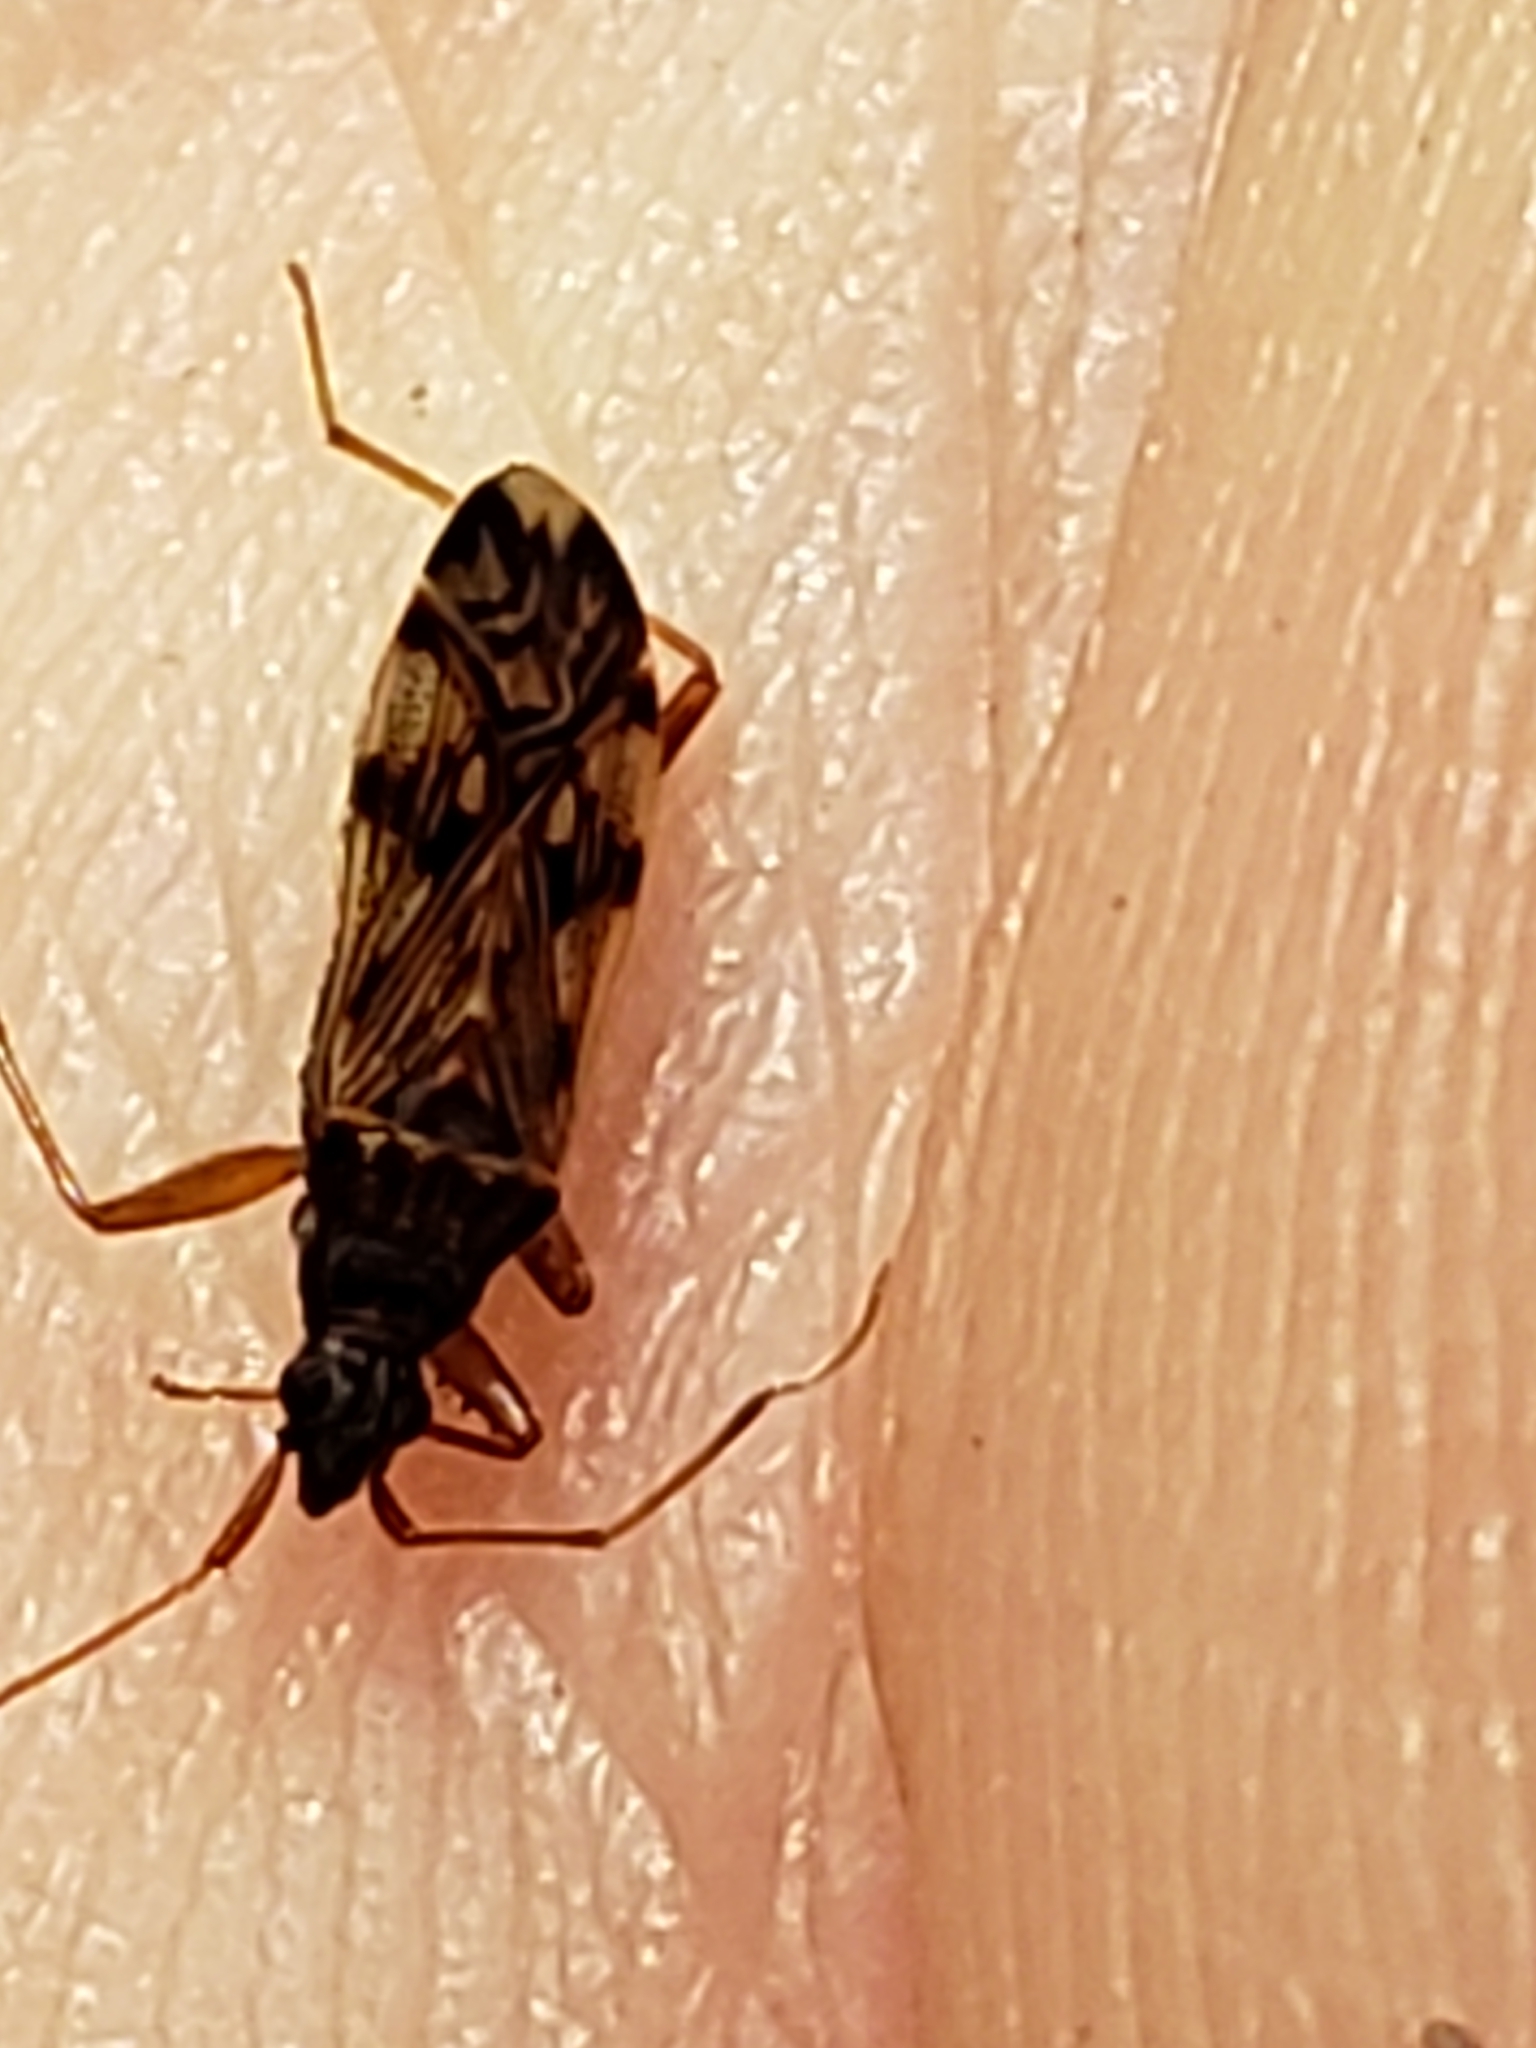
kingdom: Animalia
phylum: Arthropoda
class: Insecta
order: Hemiptera
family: Rhyparochromidae
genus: Ozophora
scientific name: Ozophora picturata
